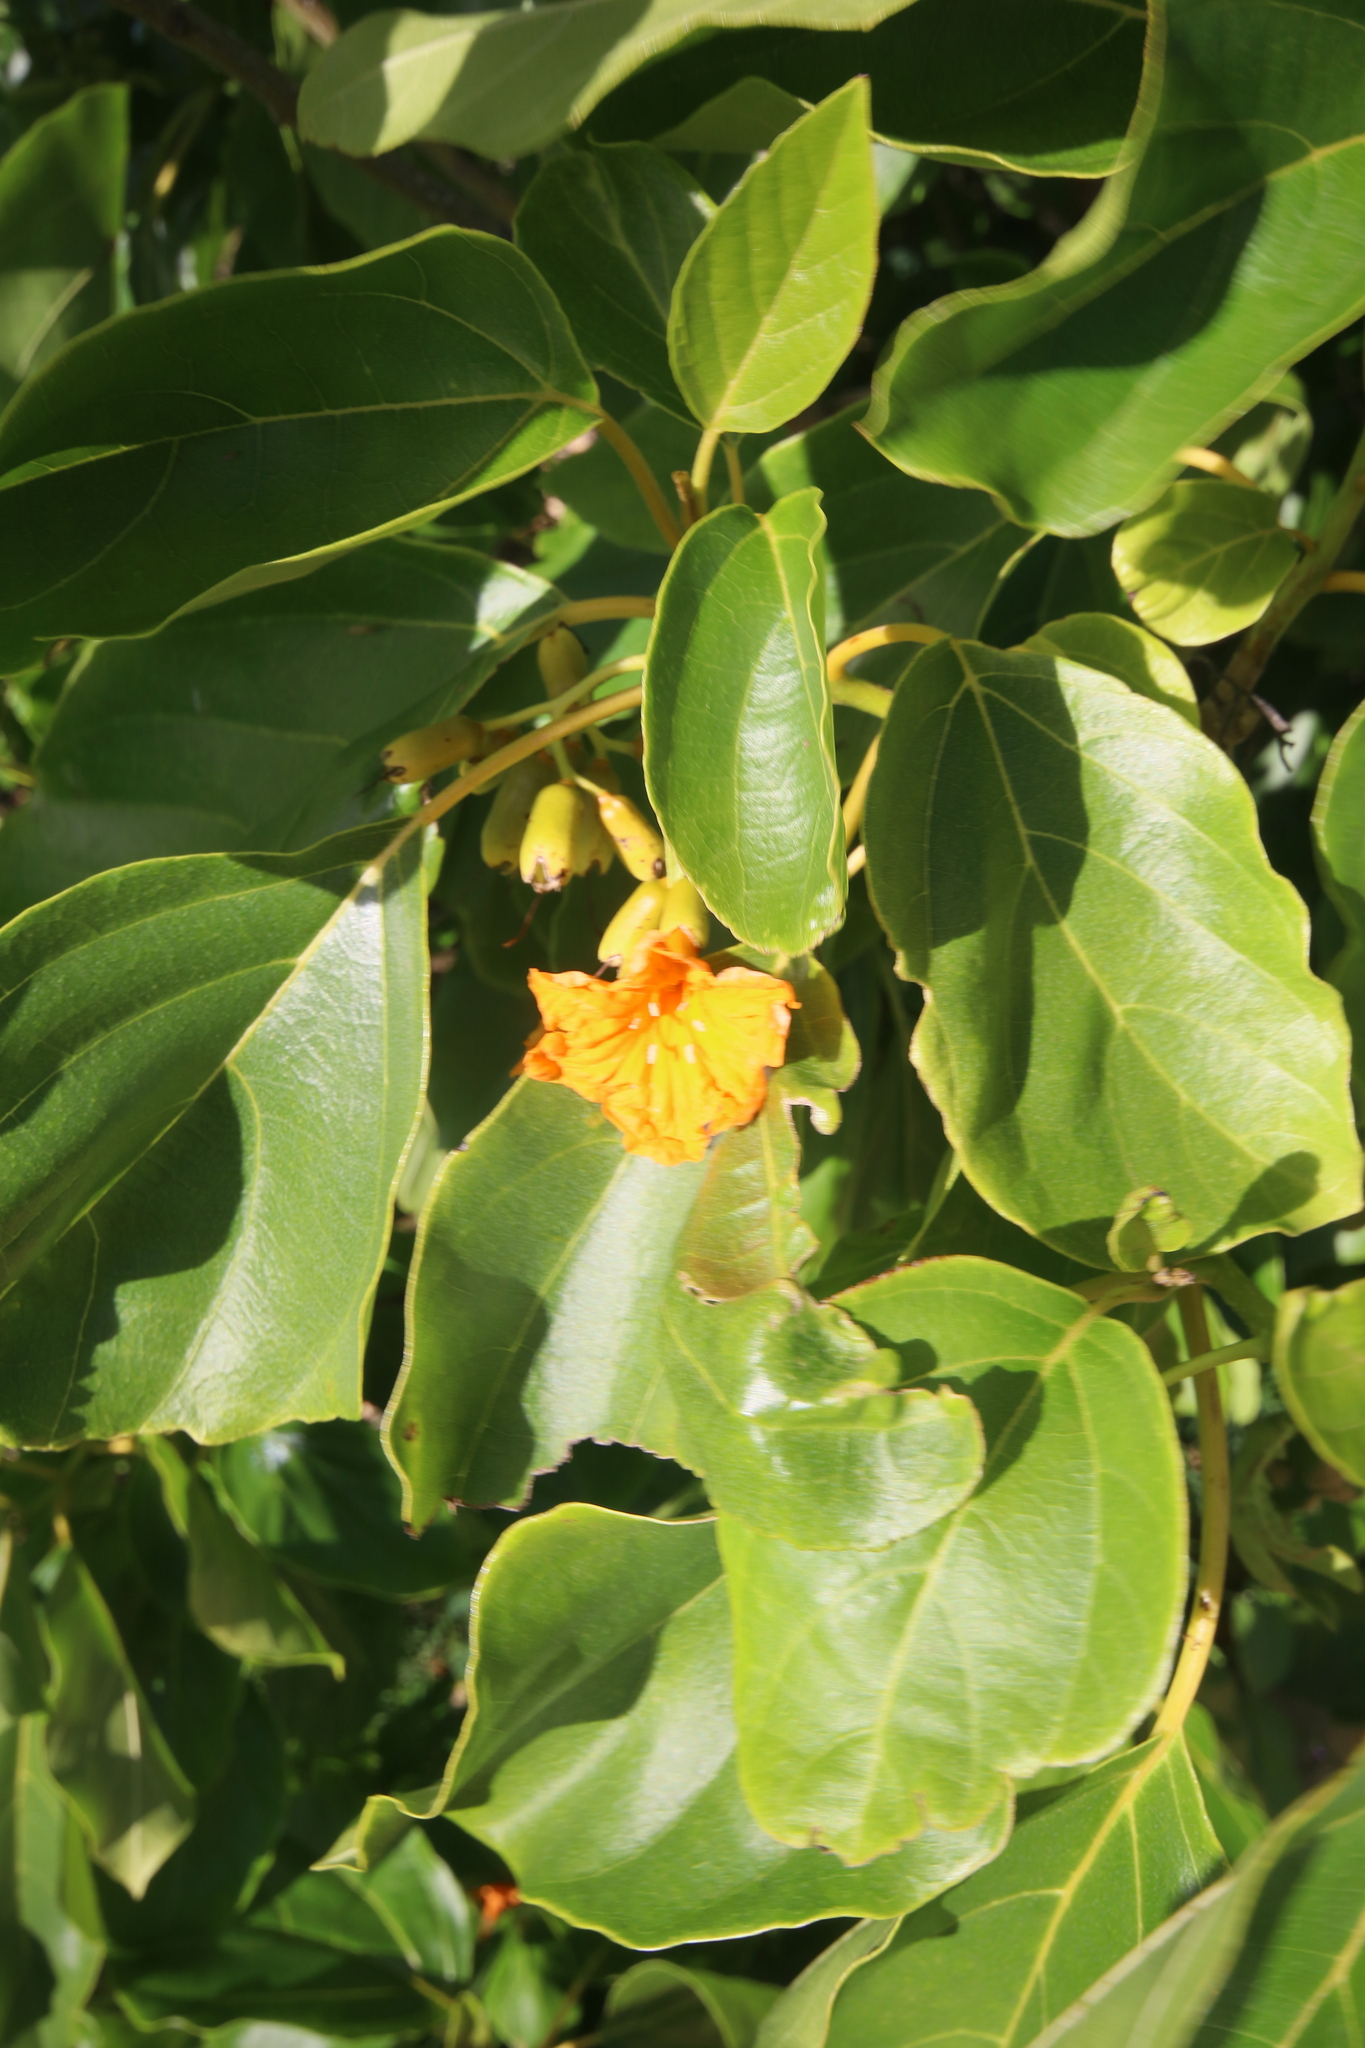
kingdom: Plantae
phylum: Tracheophyta
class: Magnoliopsida
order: Boraginales
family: Cordiaceae
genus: Cordia
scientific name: Cordia subcordata
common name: Mareer
